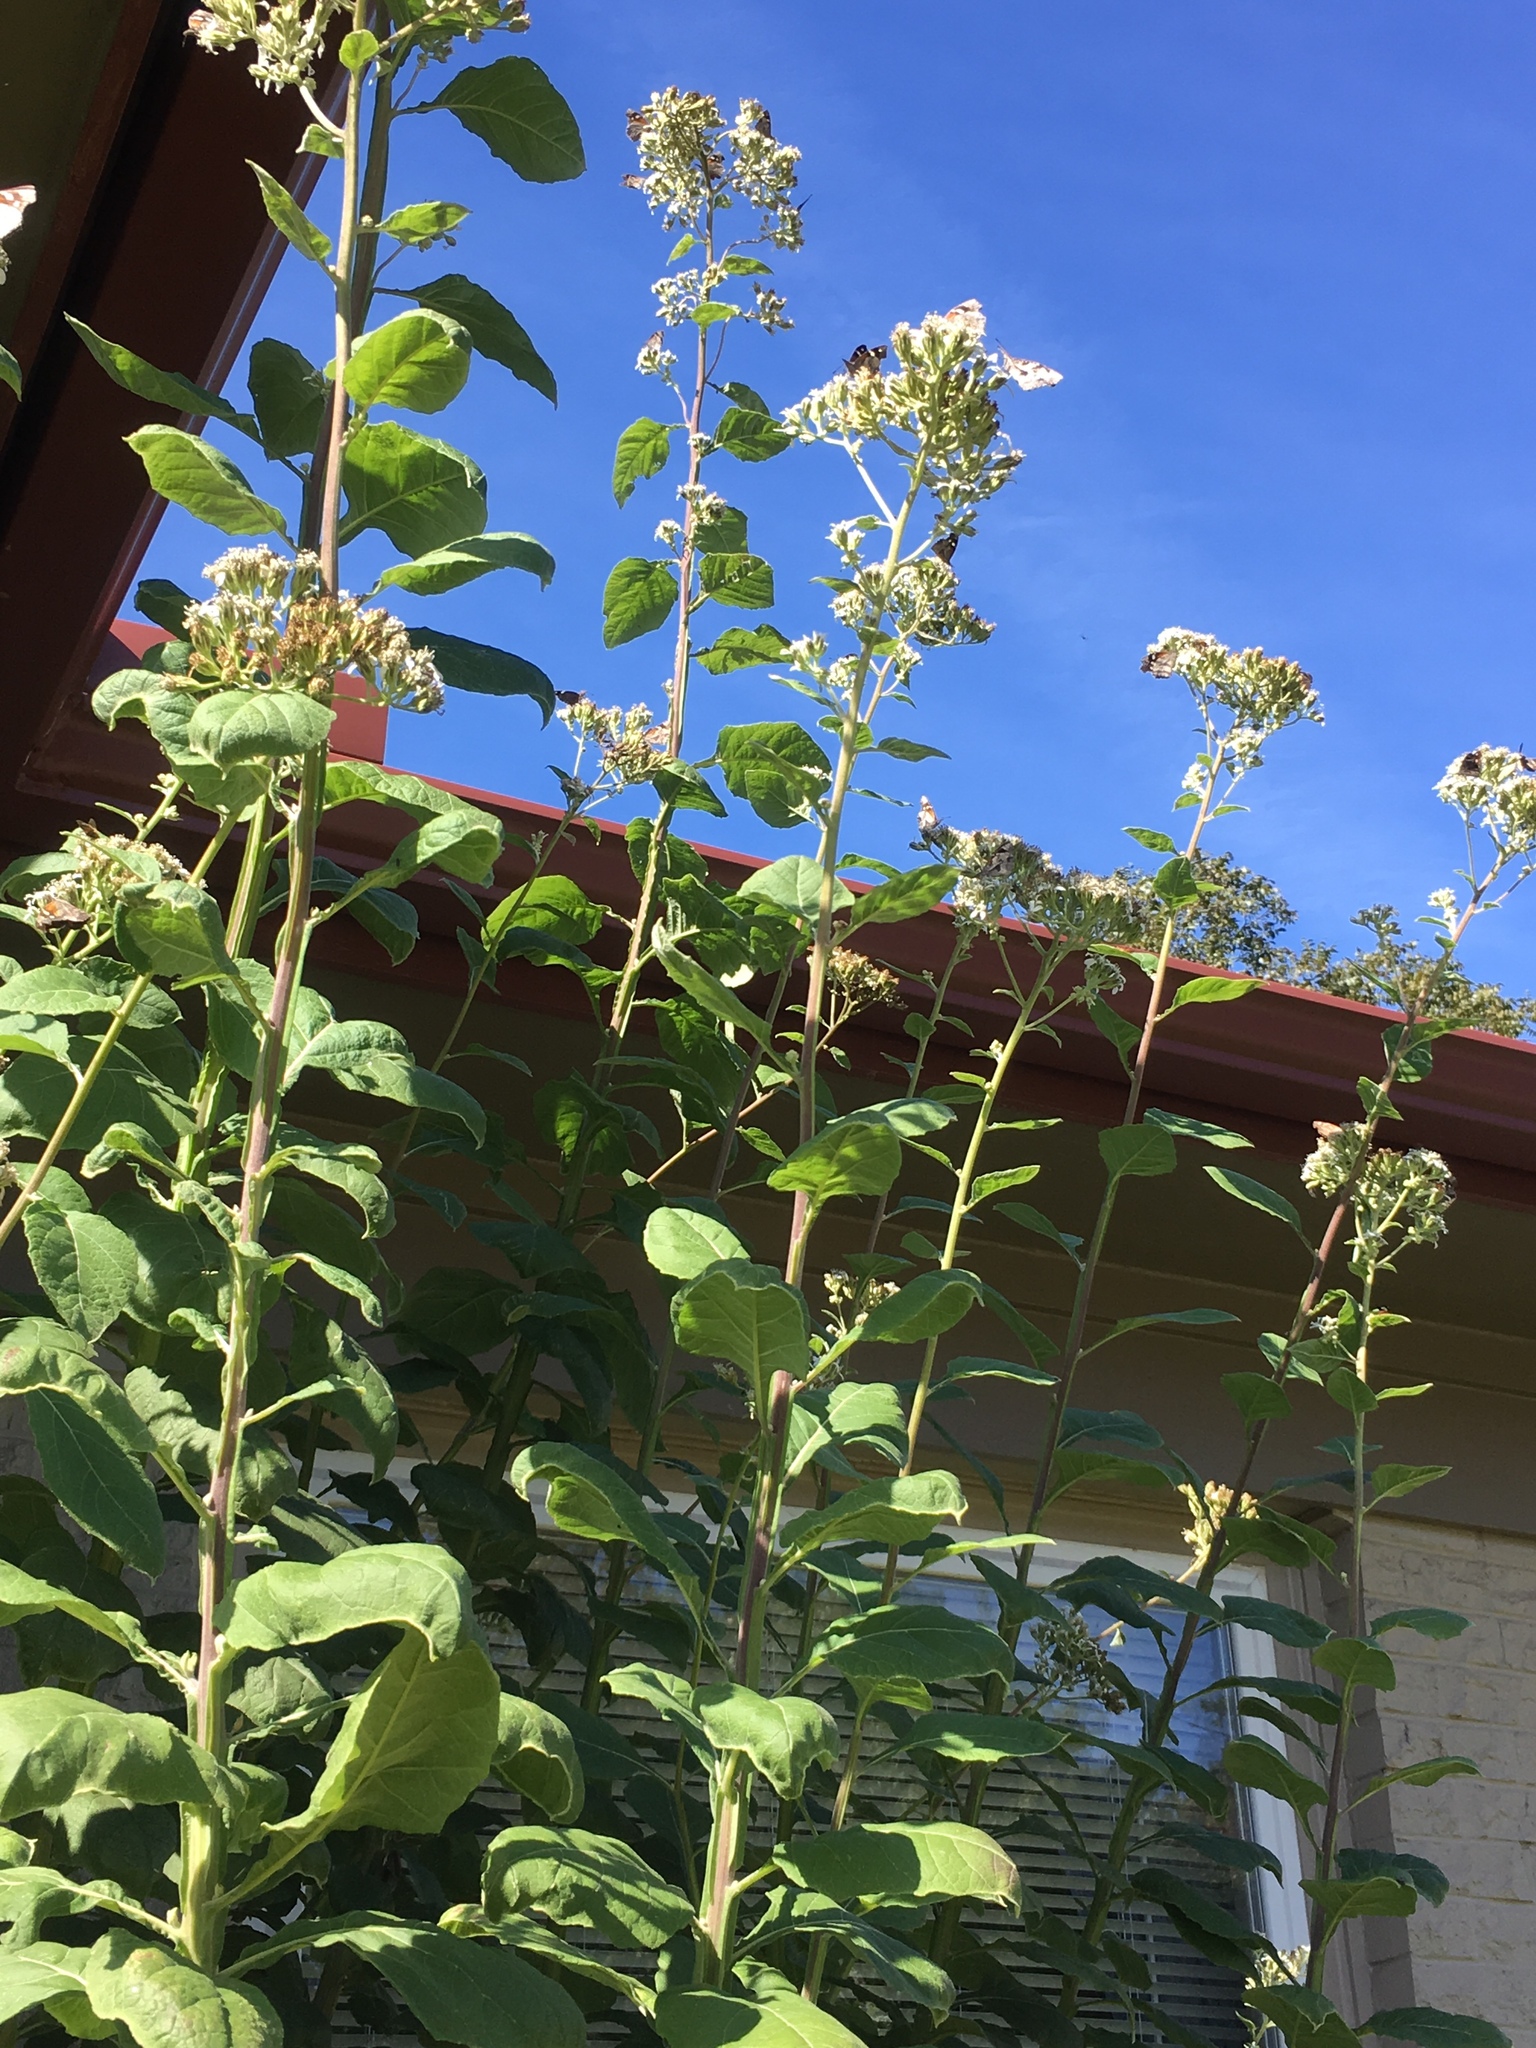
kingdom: Animalia
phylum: Arthropoda
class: Insecta
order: Lepidoptera
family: Nymphalidae
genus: Libytheana
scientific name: Libytheana carinenta
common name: American snout
